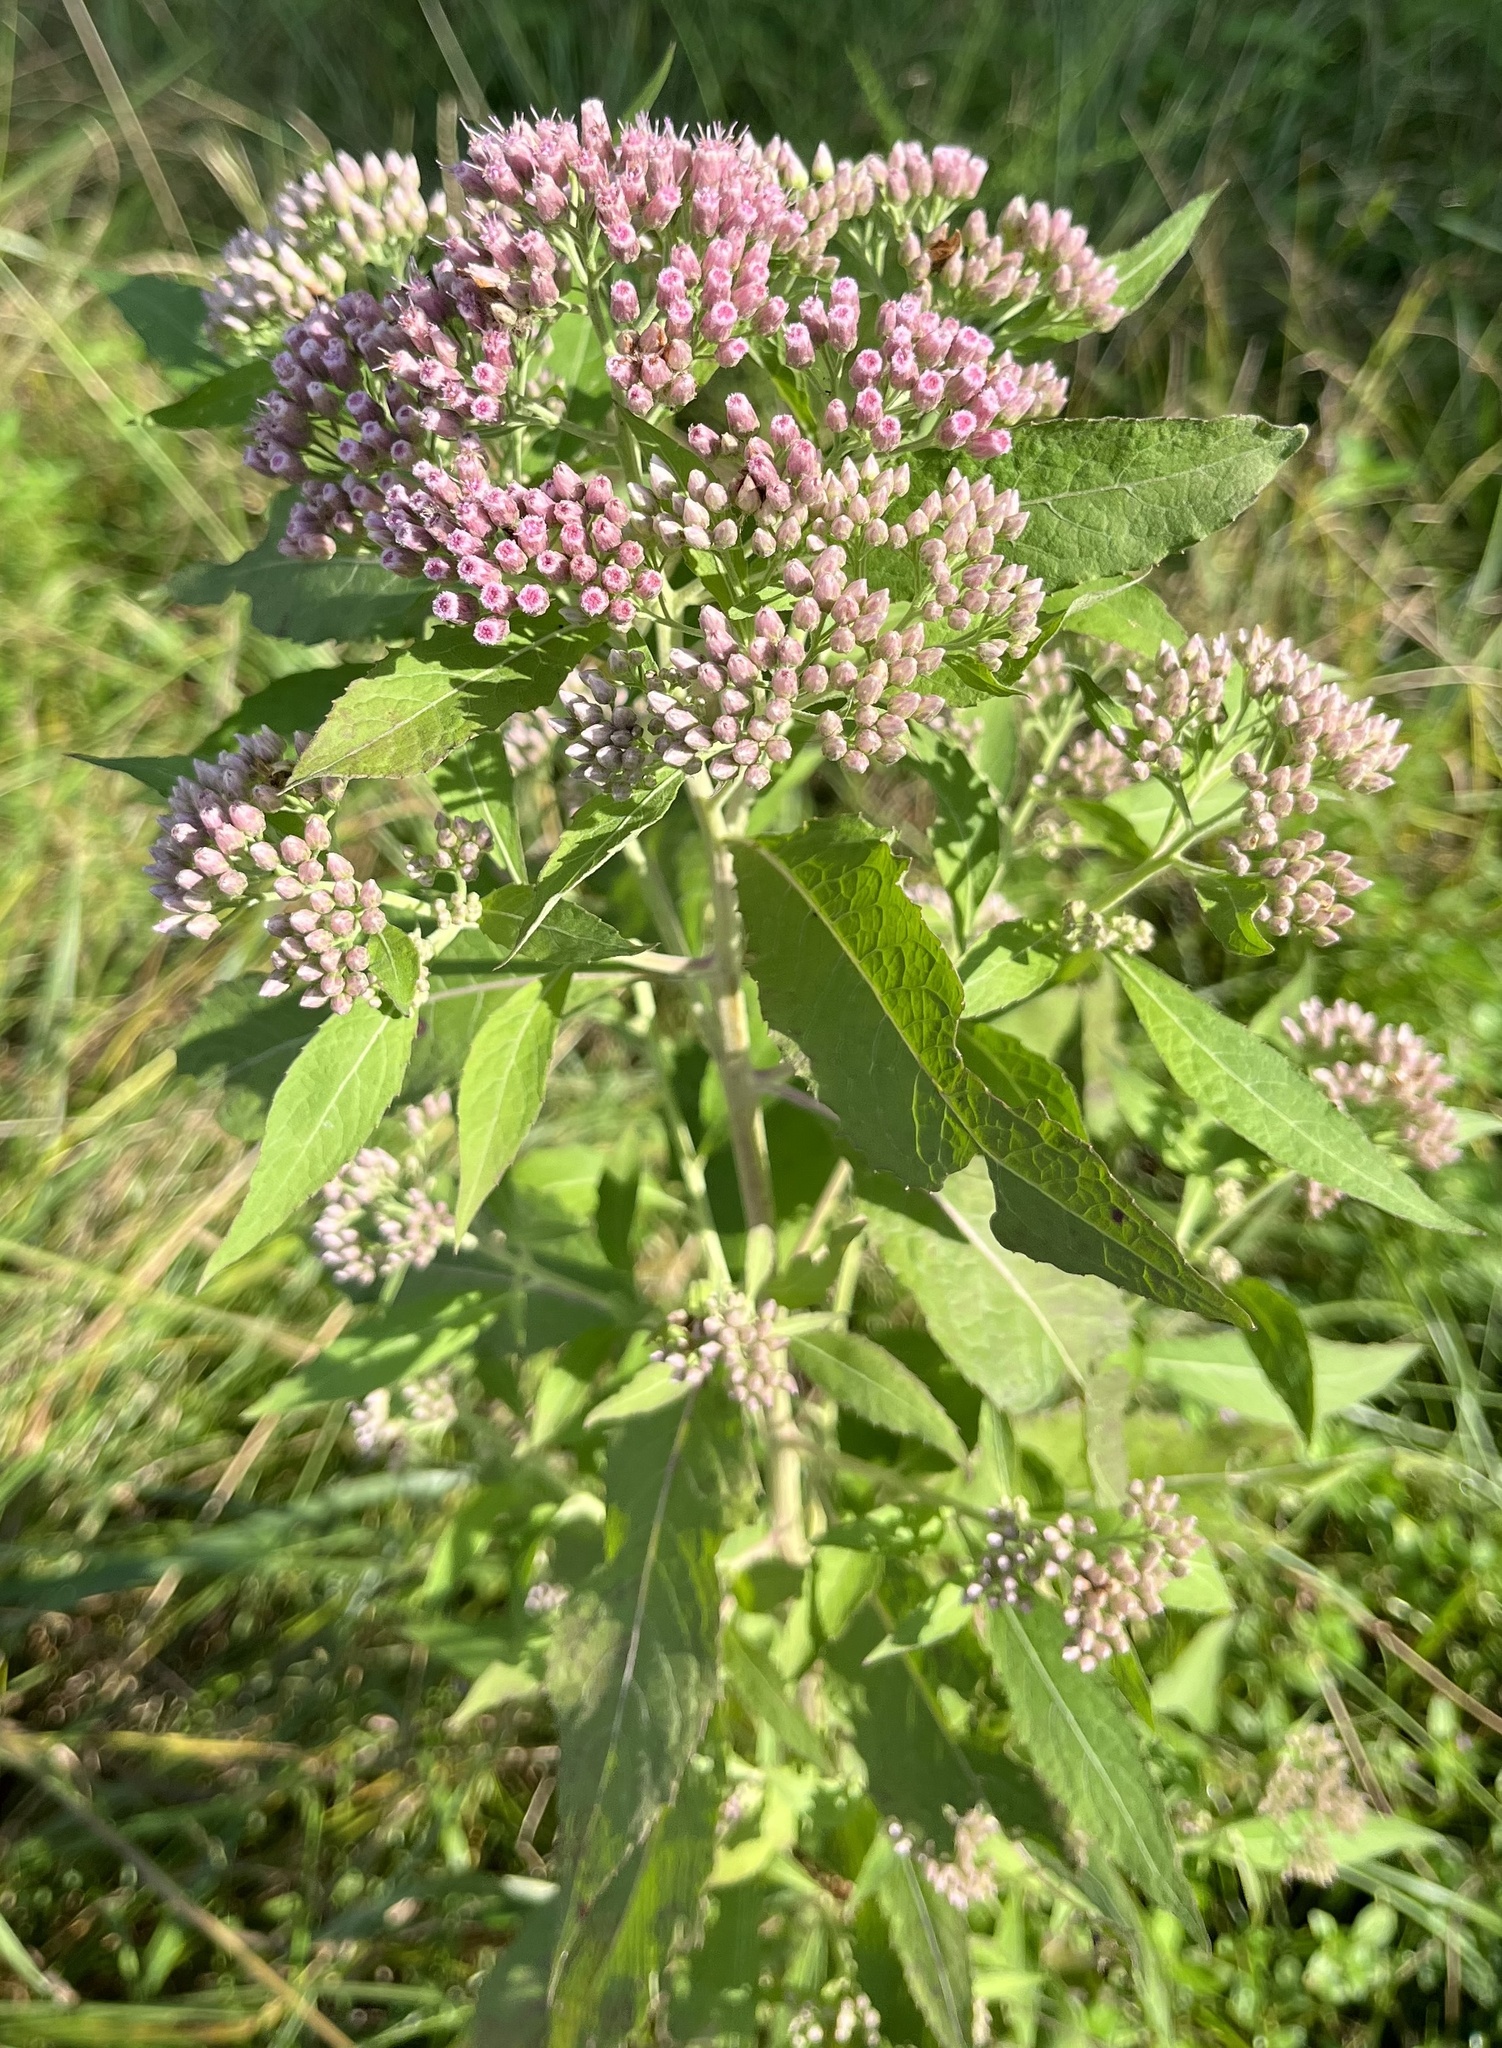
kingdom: Plantae
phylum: Tracheophyta
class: Magnoliopsida
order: Asterales
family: Asteraceae
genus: Pluchea
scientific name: Pluchea camphorata
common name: Camphor pluchea
